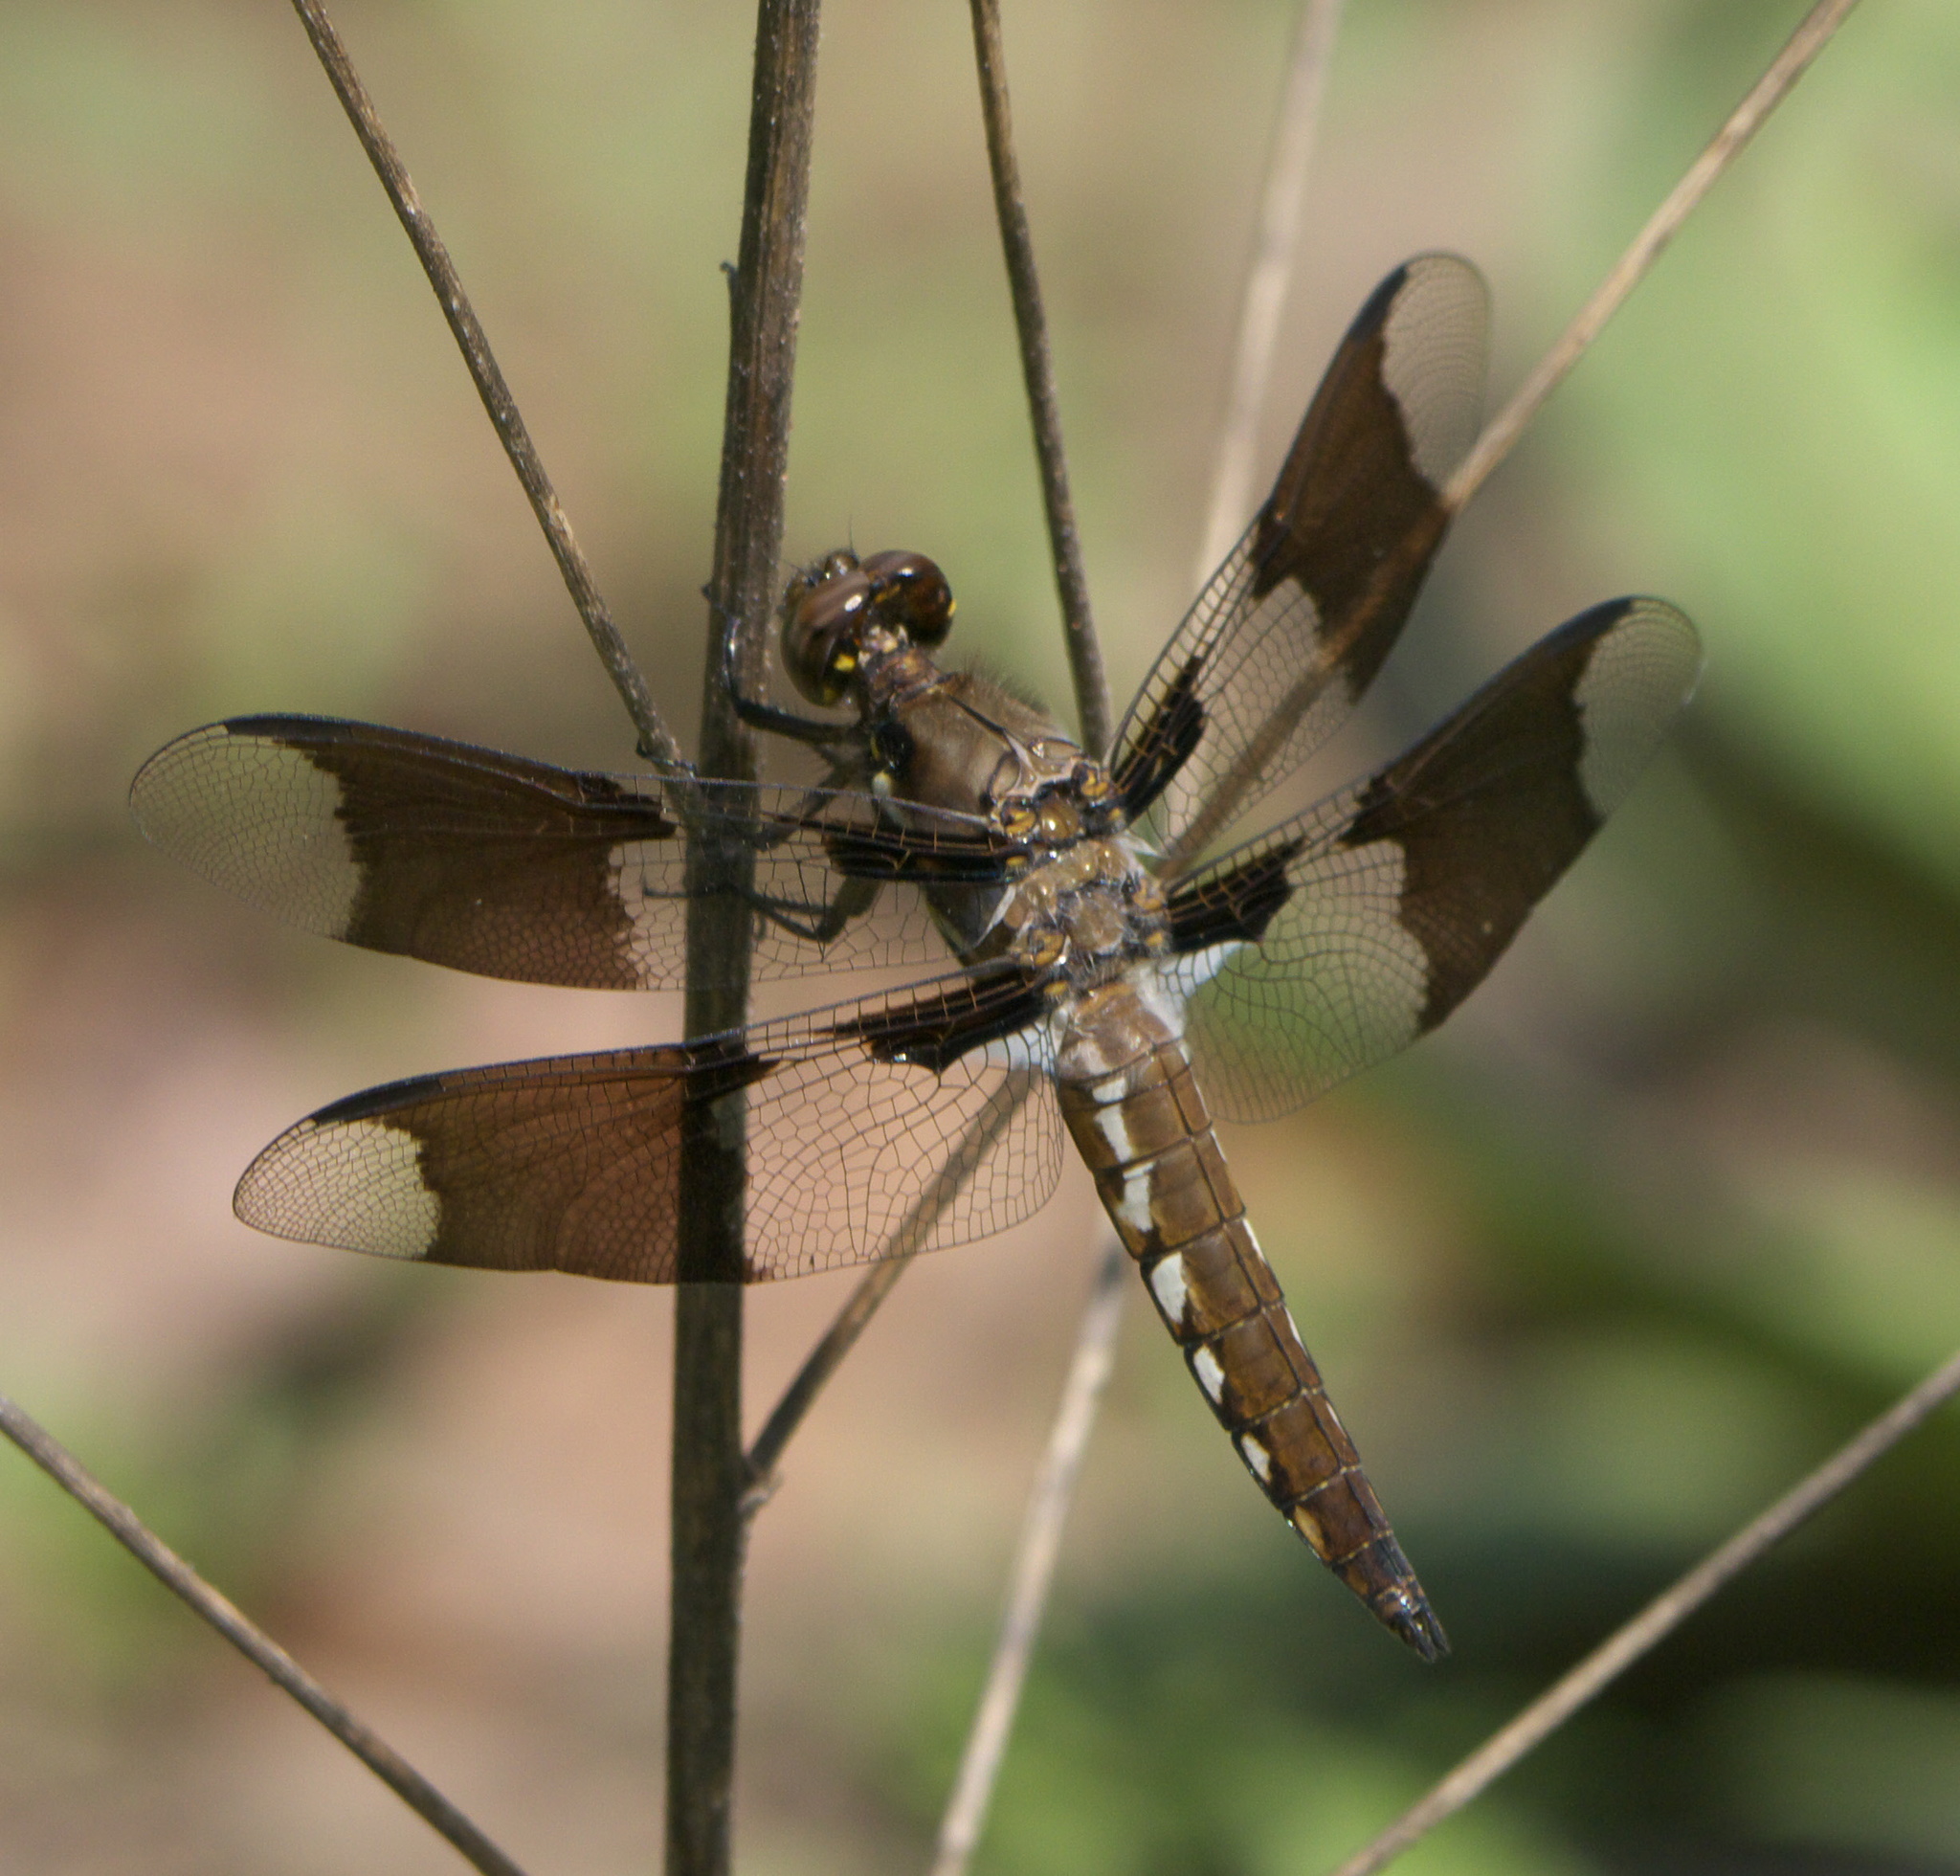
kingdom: Animalia
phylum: Arthropoda
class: Insecta
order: Odonata
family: Libellulidae
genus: Plathemis
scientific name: Plathemis lydia
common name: Common whitetail
